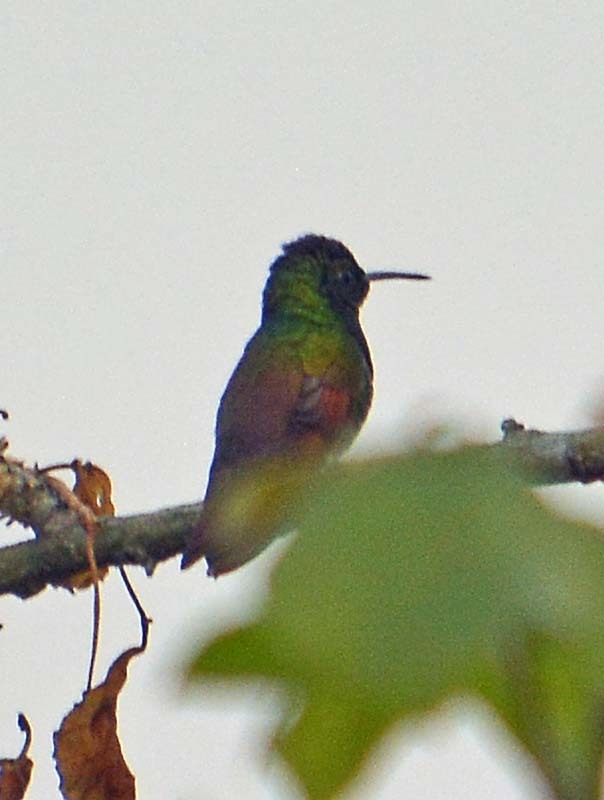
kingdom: Animalia
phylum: Chordata
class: Aves
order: Apodiformes
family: Trochilidae
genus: Saucerottia
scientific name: Saucerottia beryllina
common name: Berylline hummingbird
